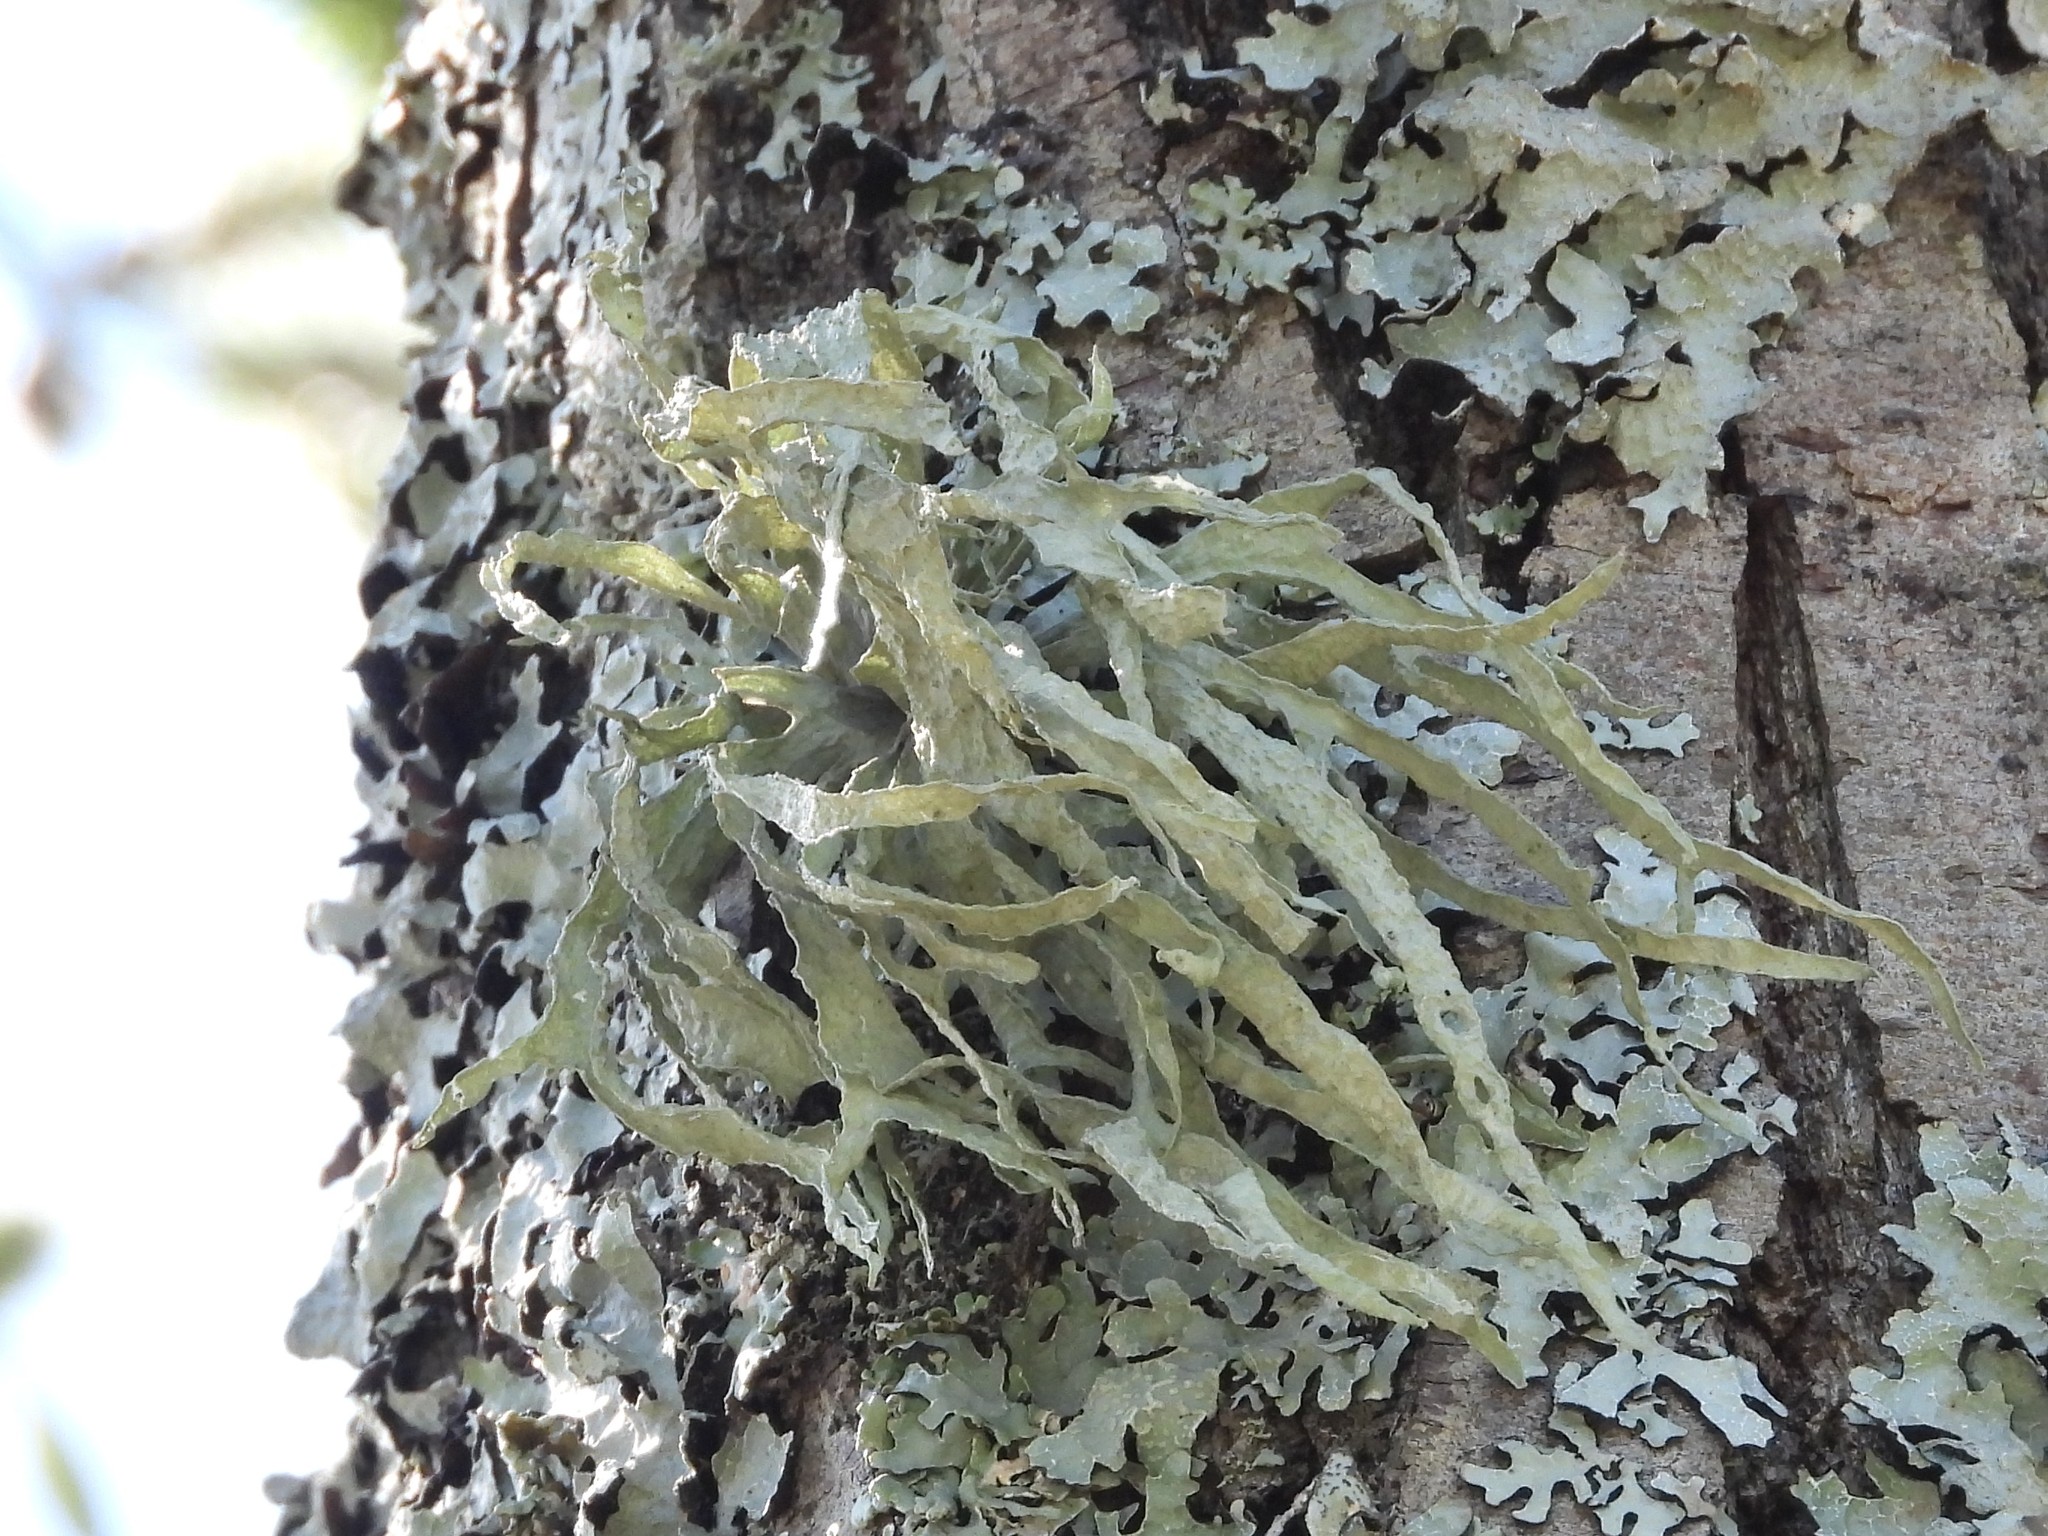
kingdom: Fungi
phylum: Ascomycota
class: Lecanoromycetes
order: Lecanorales
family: Ramalinaceae
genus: Ramalina
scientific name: Ramalina fraxinea
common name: Cartilage lichen
